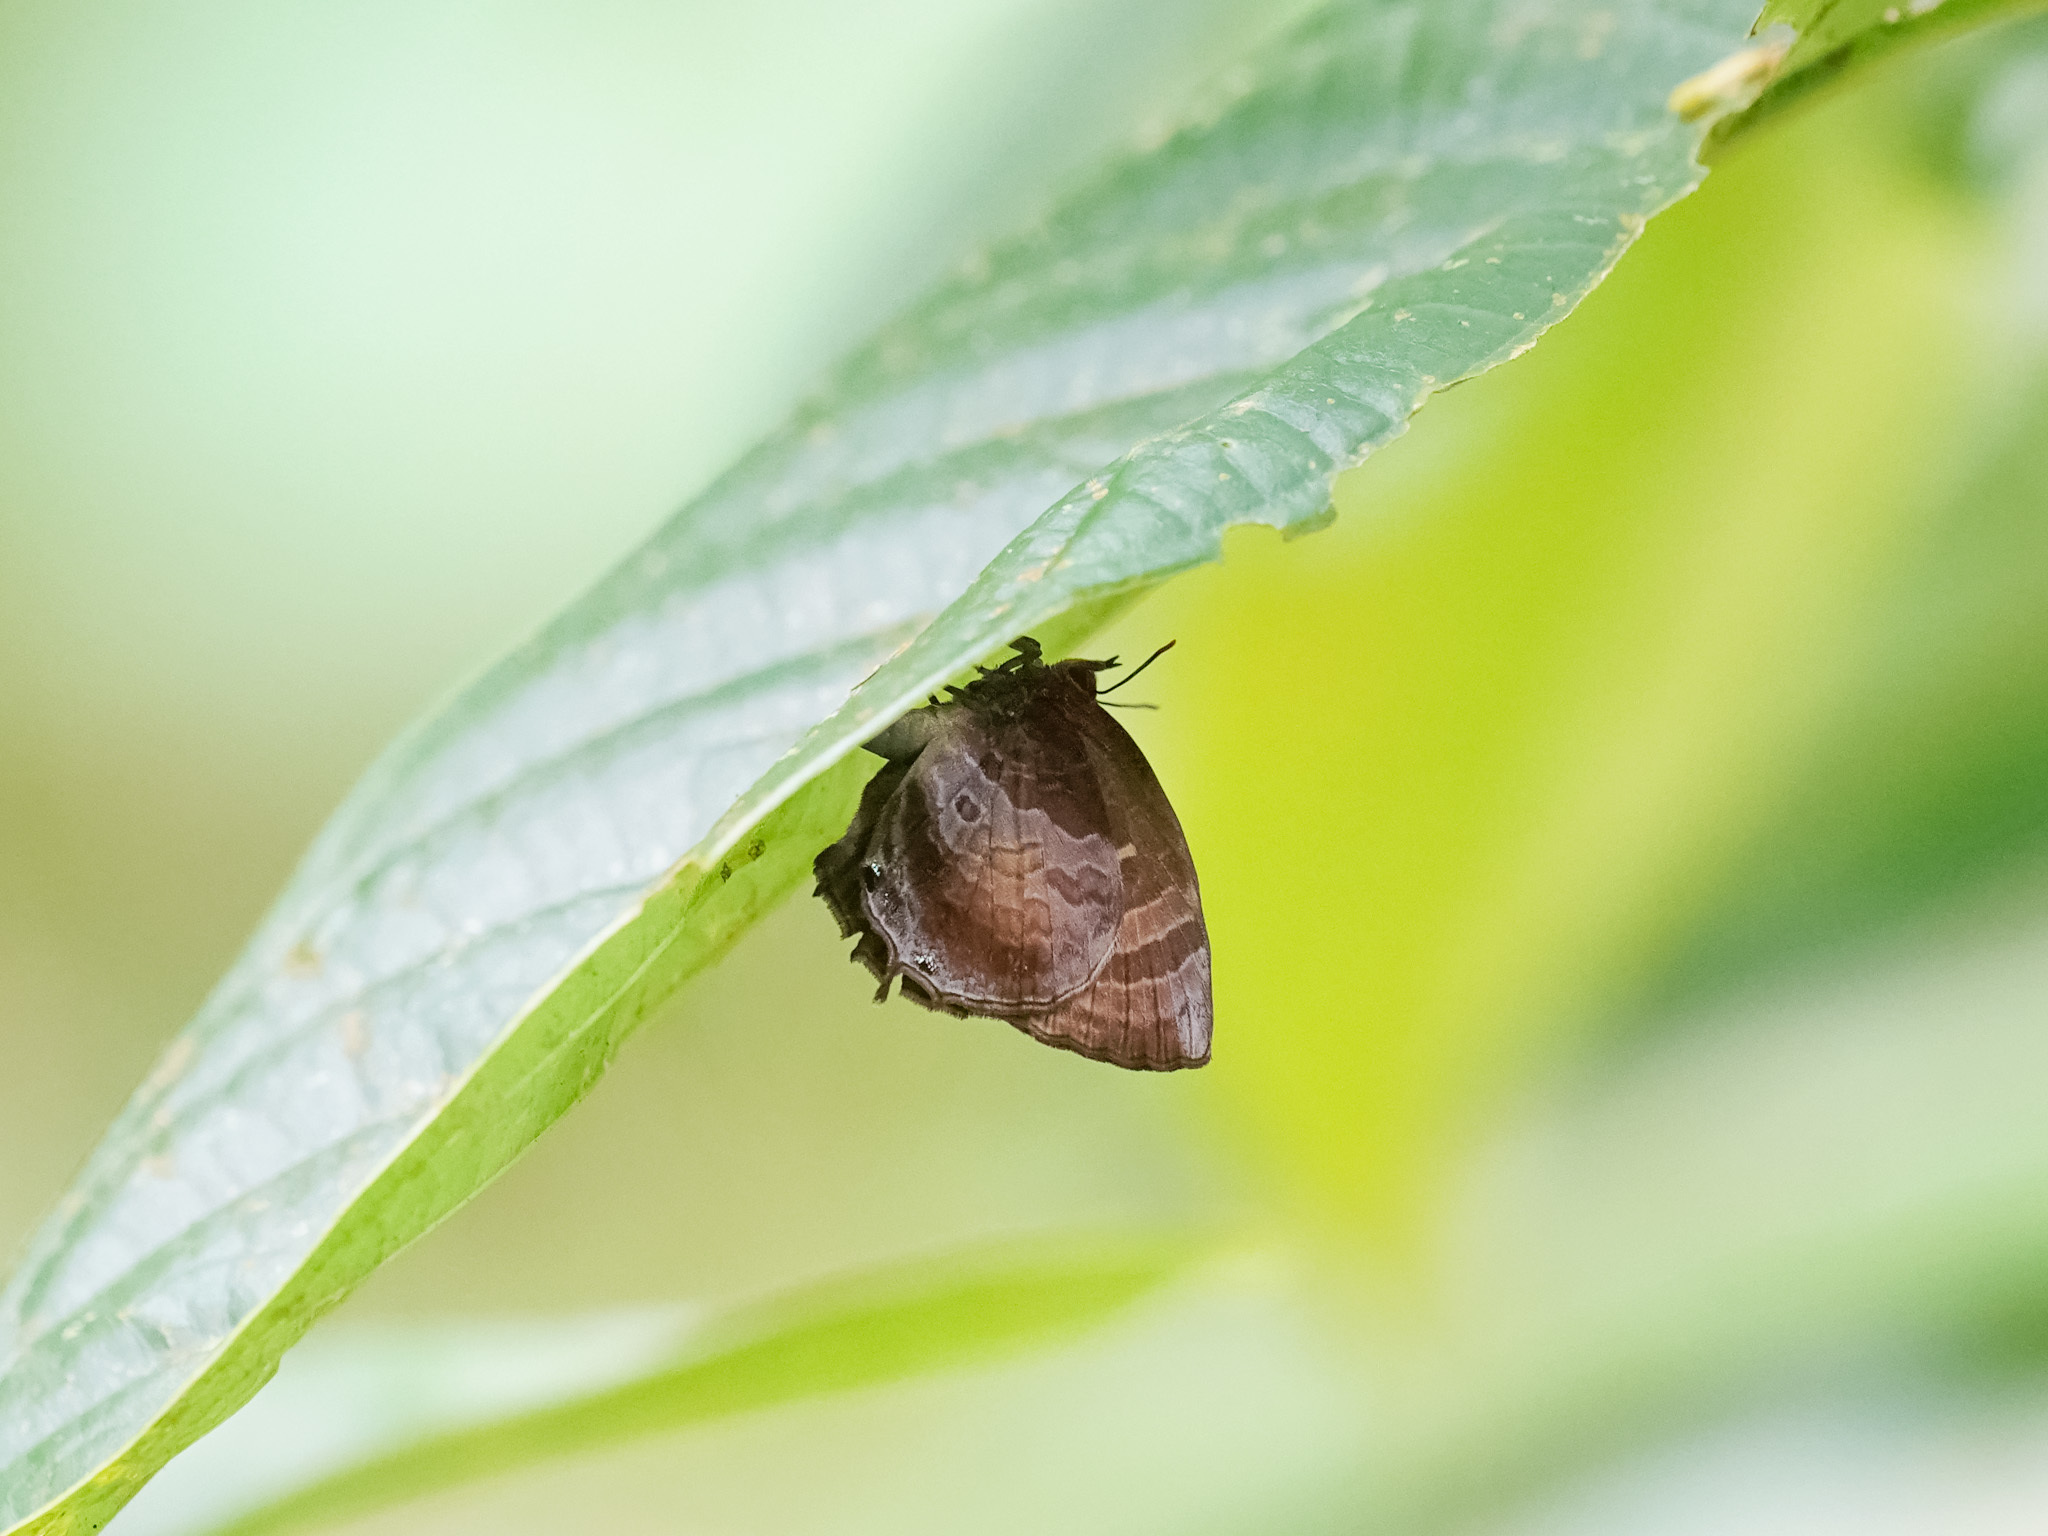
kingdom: Animalia
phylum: Arthropoda
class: Insecta
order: Lepidoptera
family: Lycaenidae
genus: Flos
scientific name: Flos apidanus
